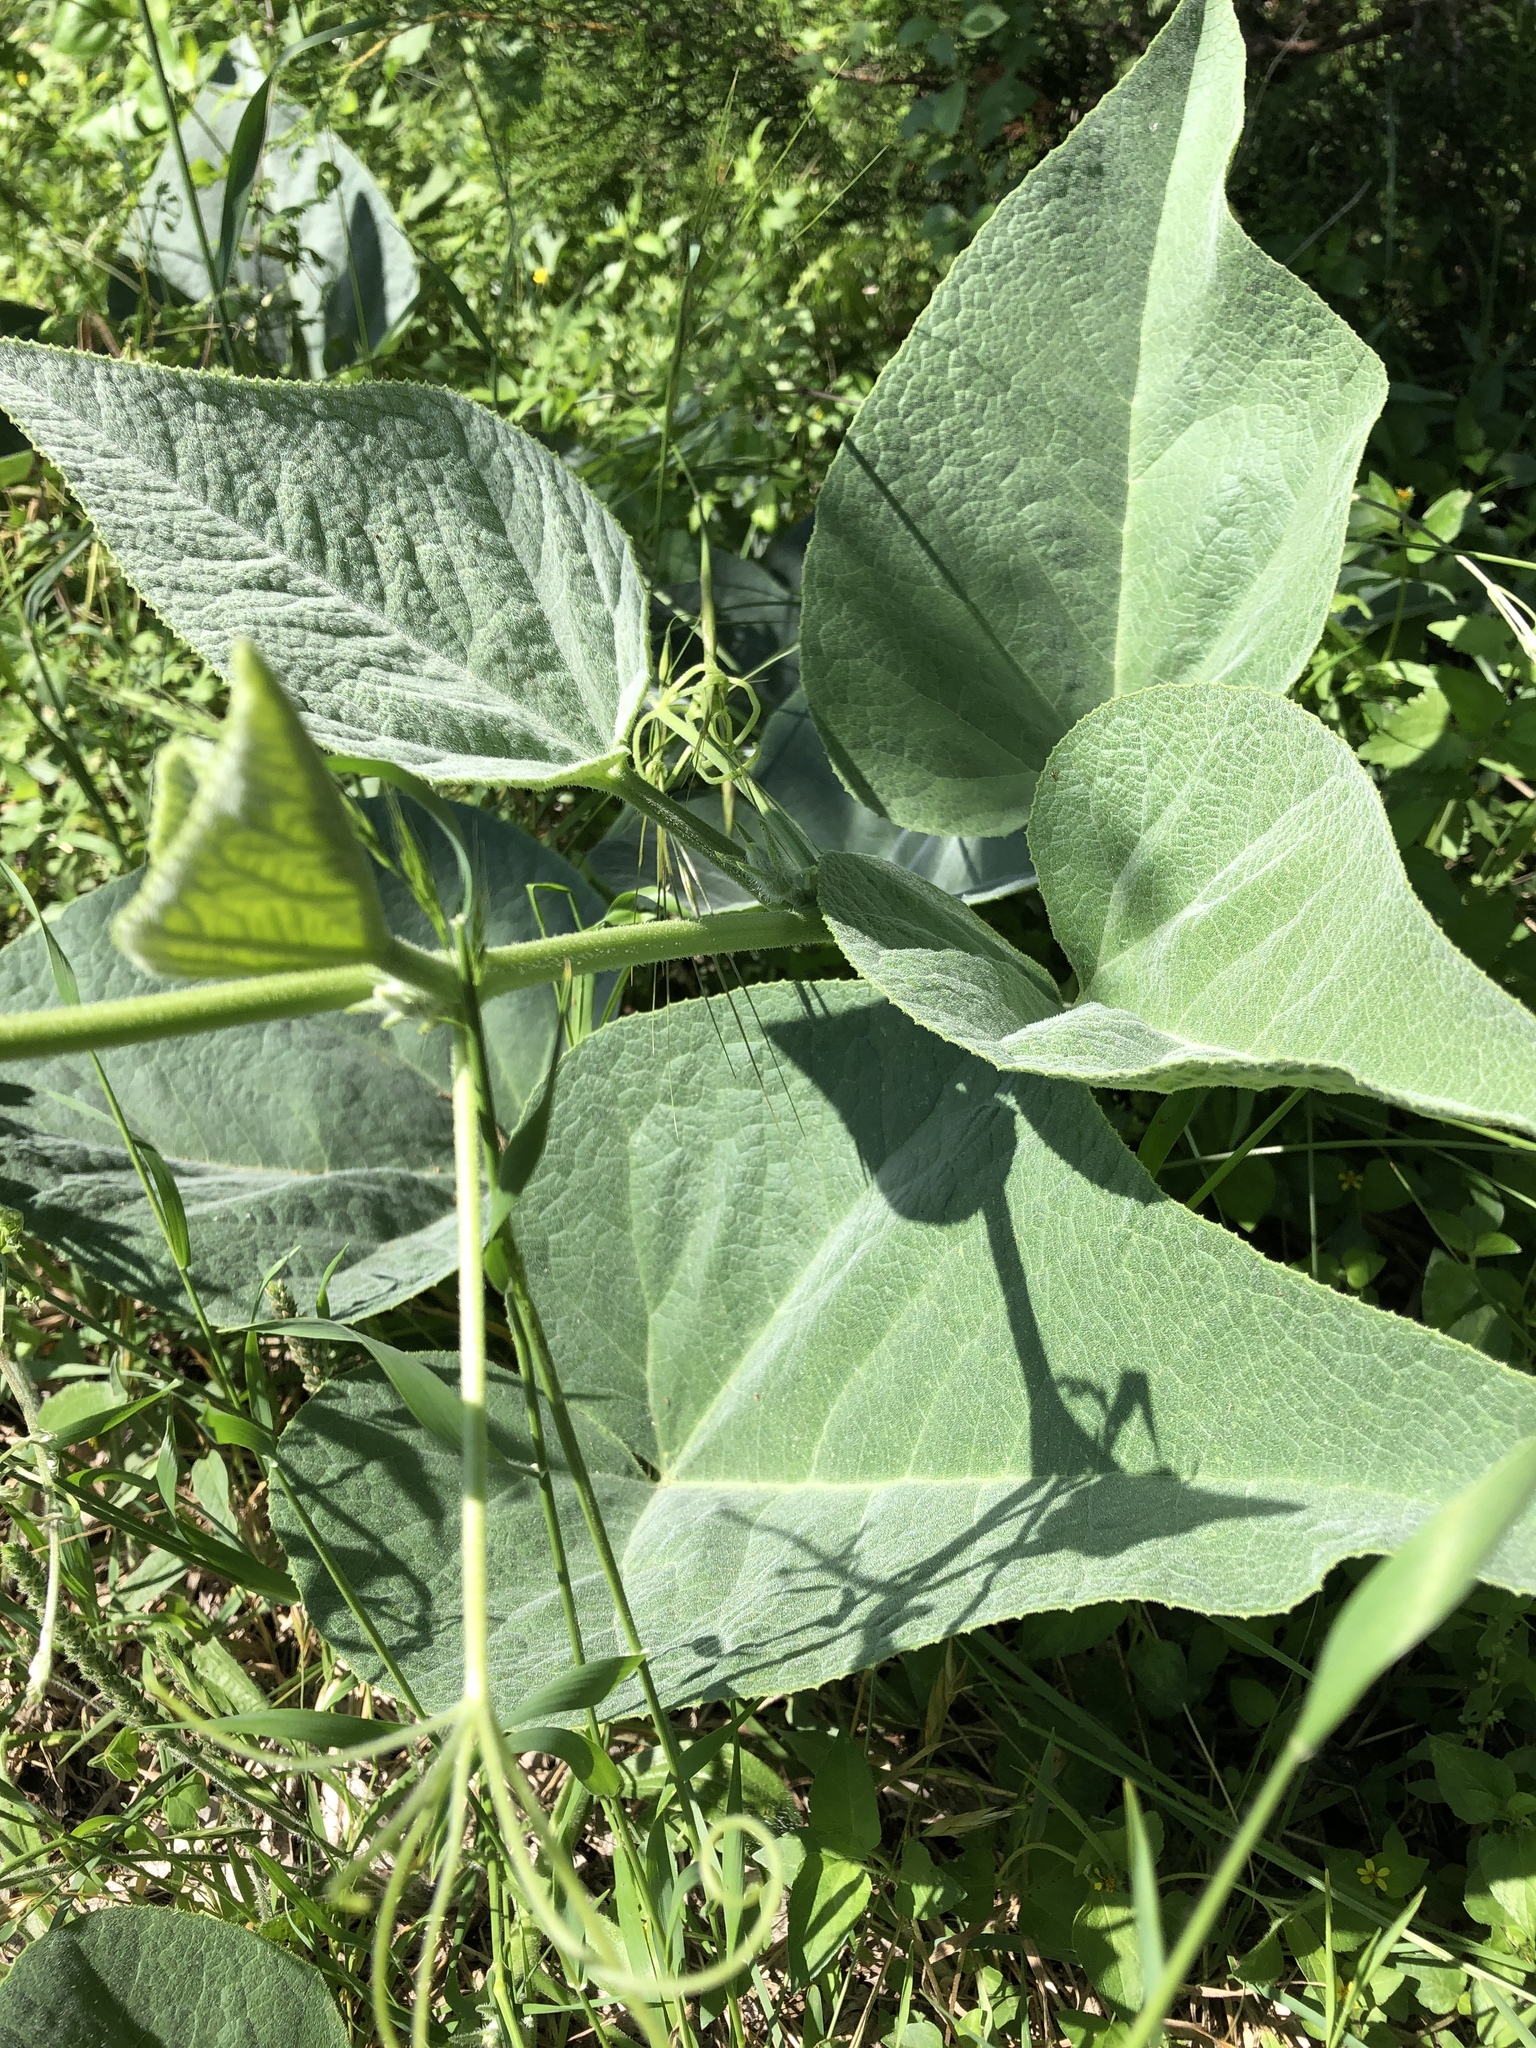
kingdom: Plantae
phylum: Tracheophyta
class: Magnoliopsida
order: Cucurbitales
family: Cucurbitaceae
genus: Cucurbita
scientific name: Cucurbita foetidissima
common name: Buffalo gourd
